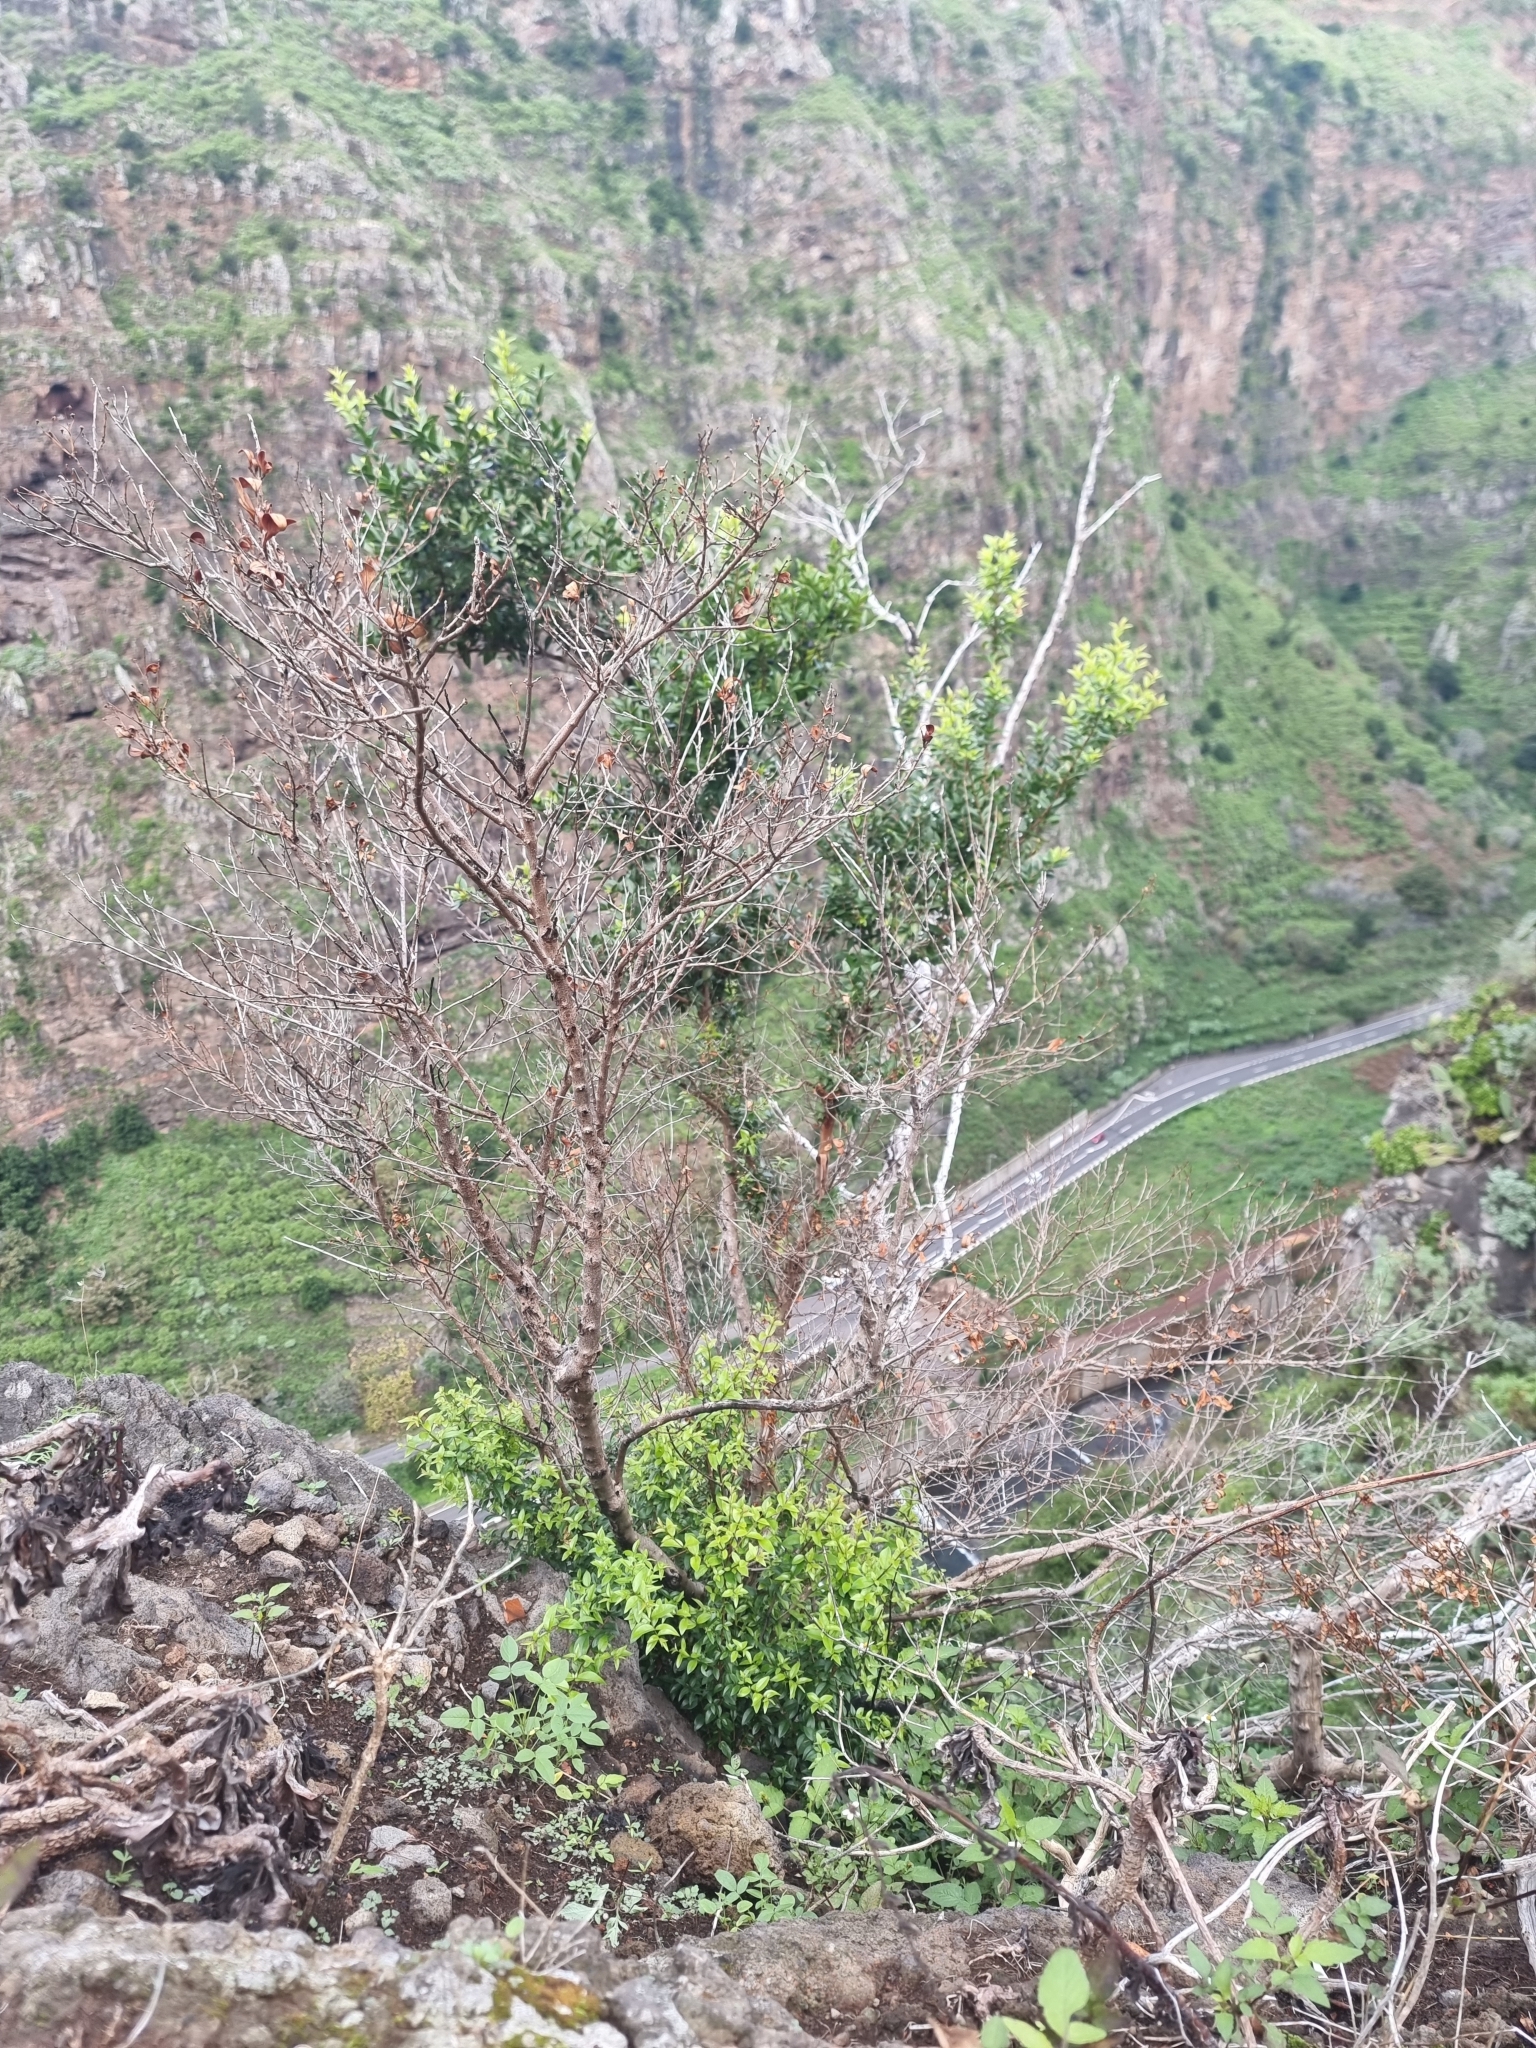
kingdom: Plantae
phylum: Tracheophyta
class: Magnoliopsida
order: Myrtales
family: Myrtaceae
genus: Myrtus
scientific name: Myrtus communis
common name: Myrtle
